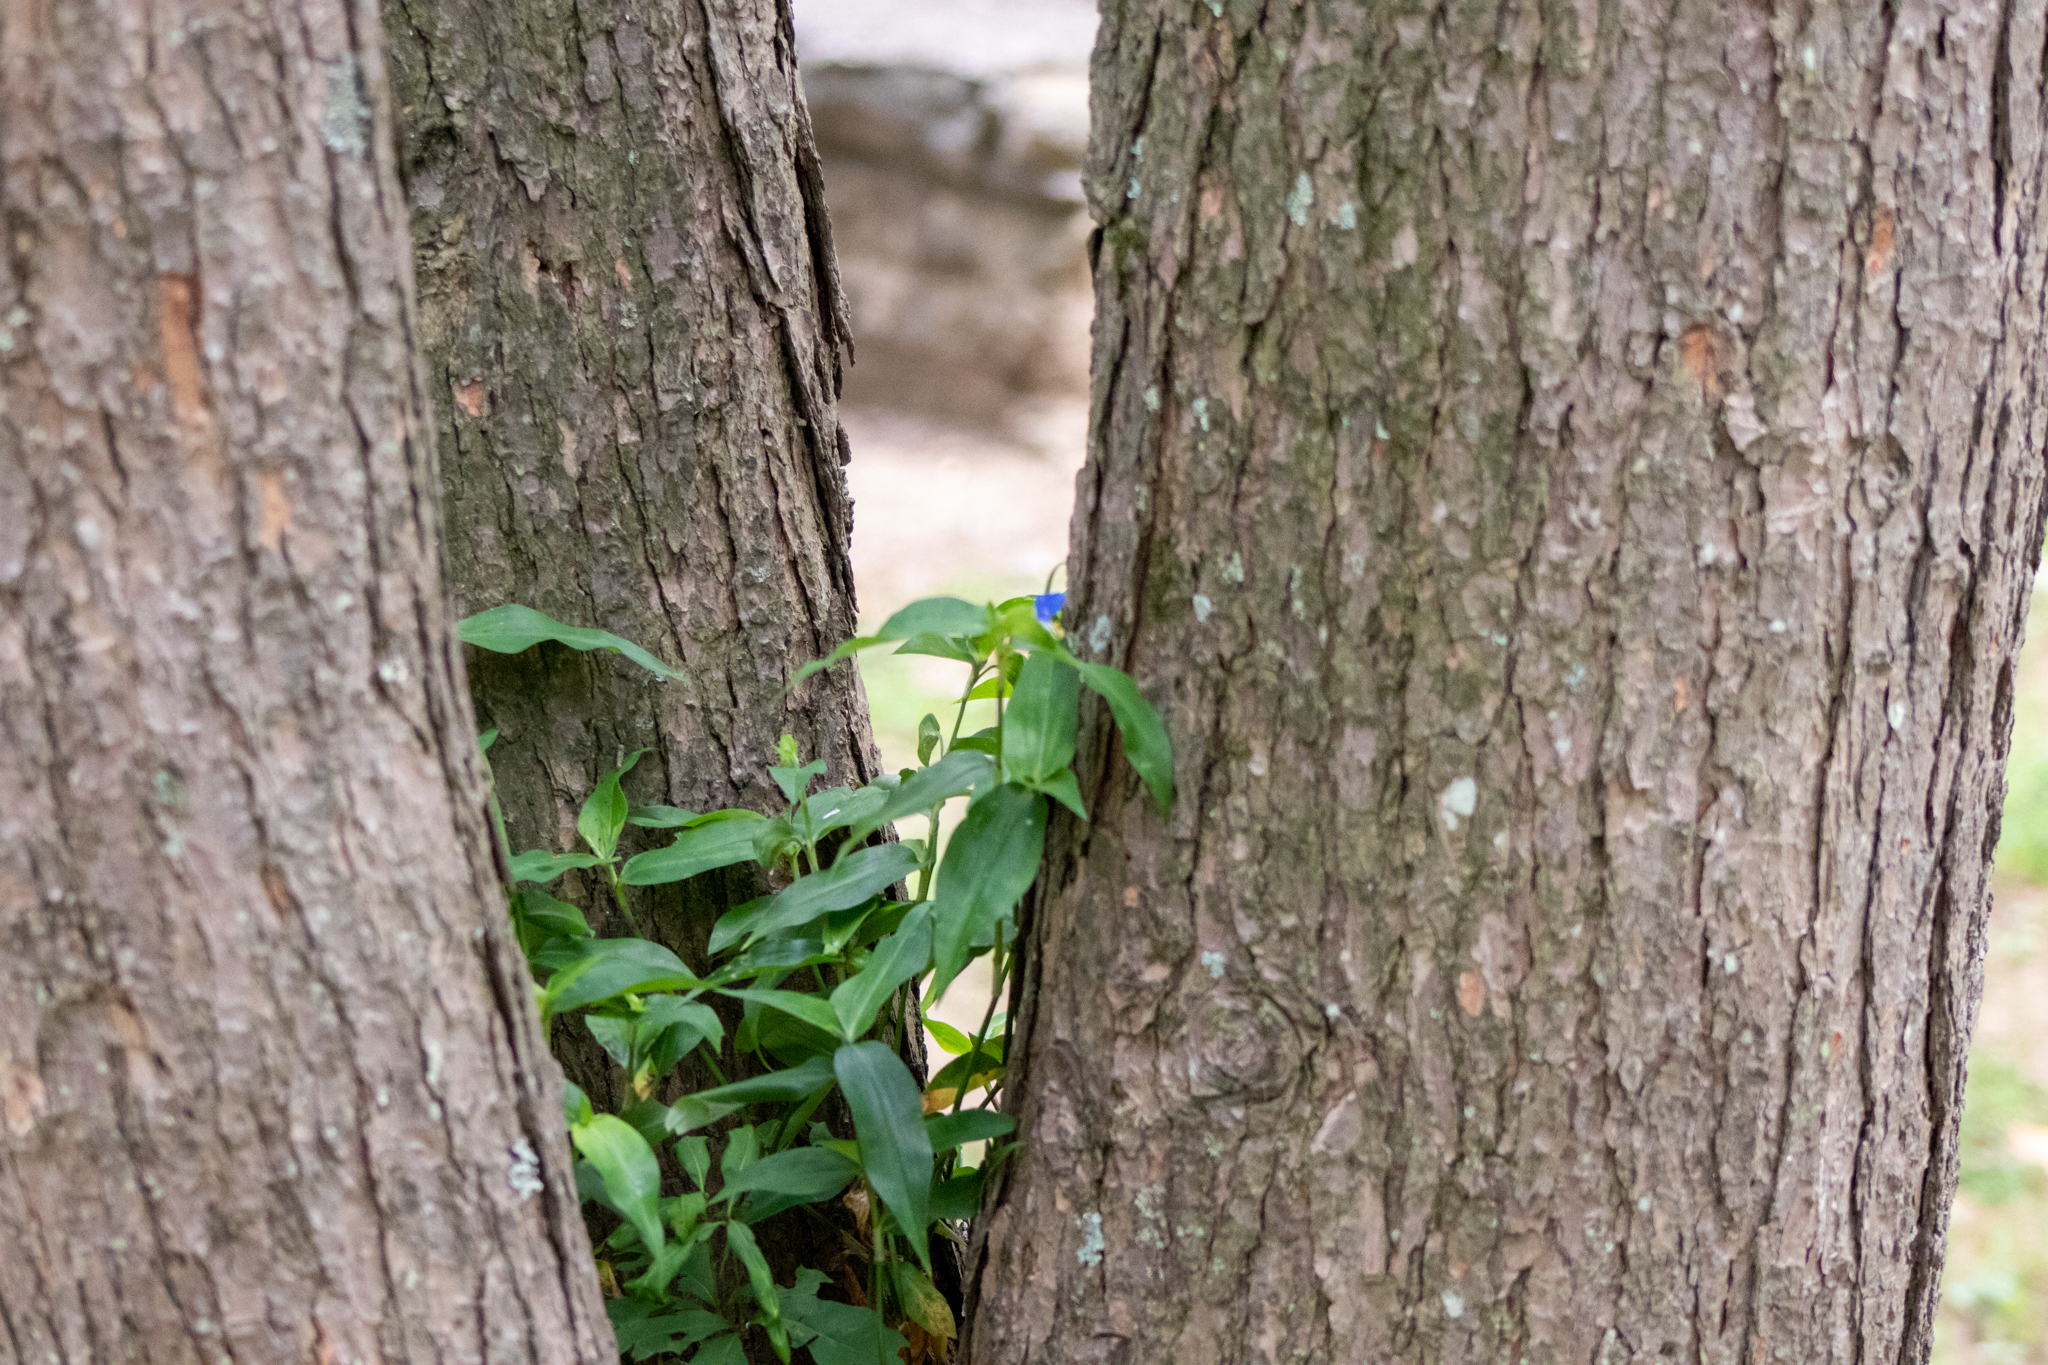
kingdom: Plantae
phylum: Tracheophyta
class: Liliopsida
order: Commelinales
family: Commelinaceae
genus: Commelina
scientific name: Commelina communis
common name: Asiatic dayflower
